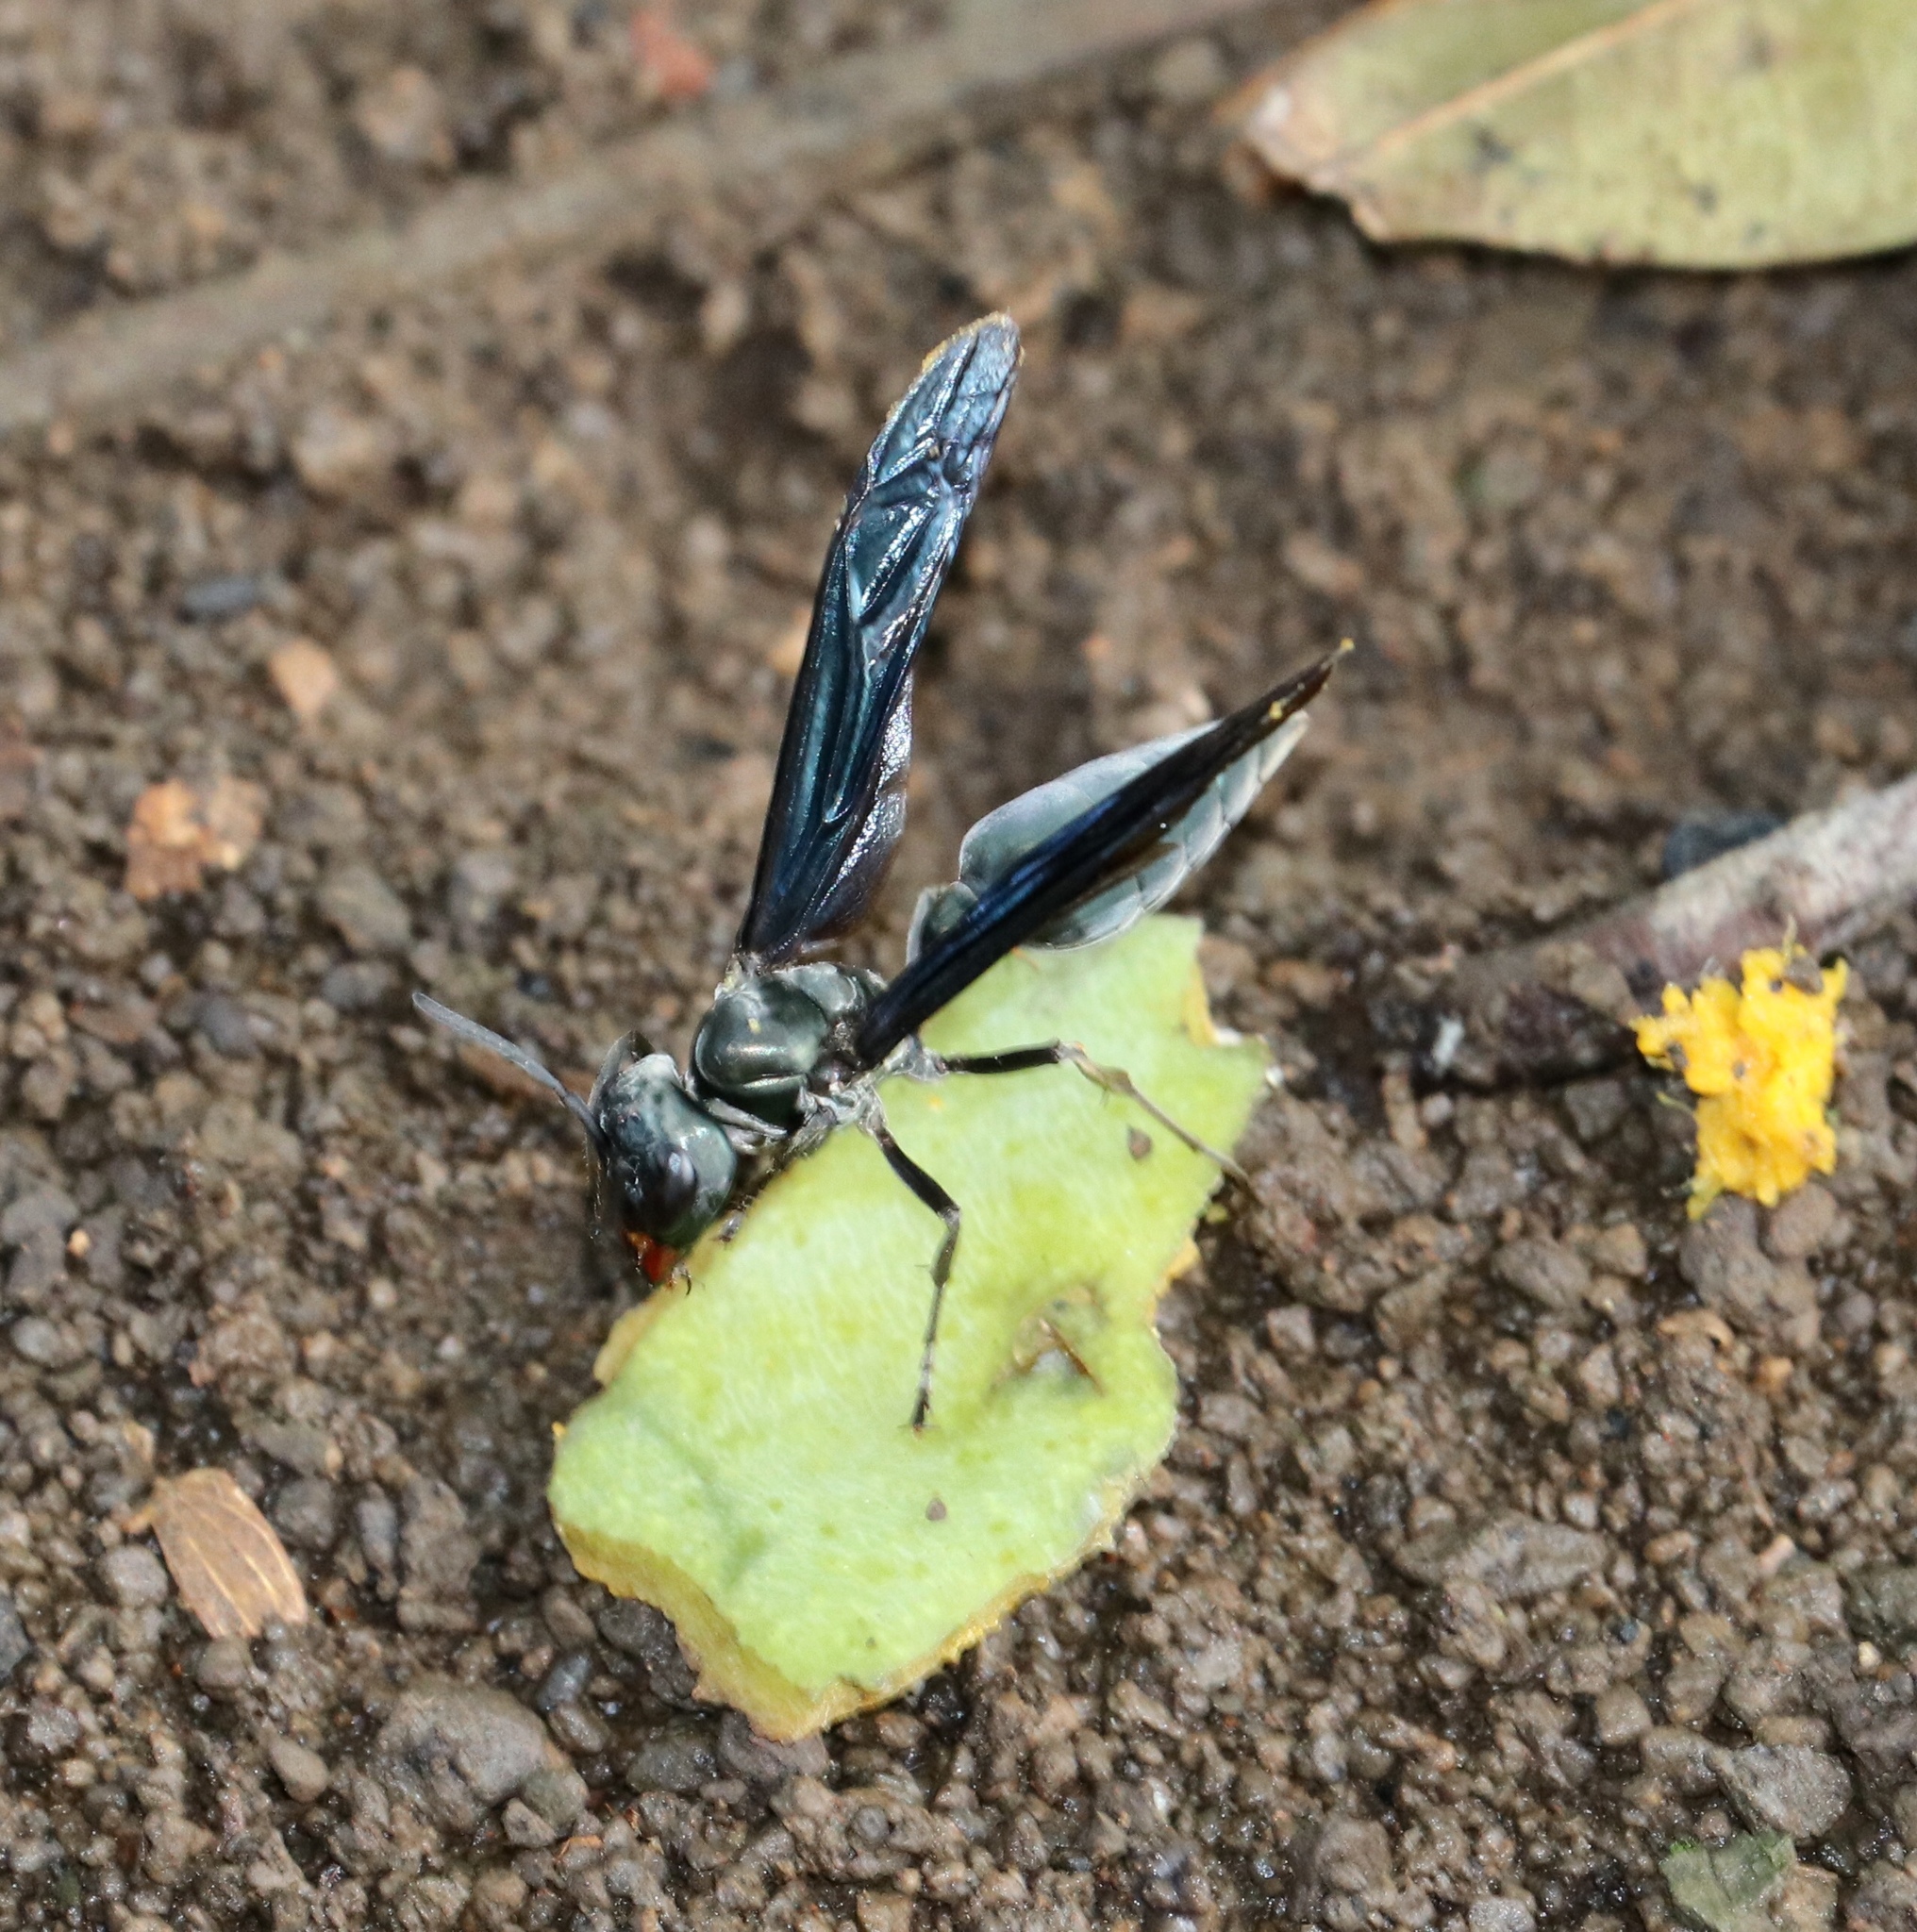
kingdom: Animalia
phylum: Arthropoda
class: Insecta
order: Hymenoptera
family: Vespidae
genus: Synoeca
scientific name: Synoeca septentrionalis
